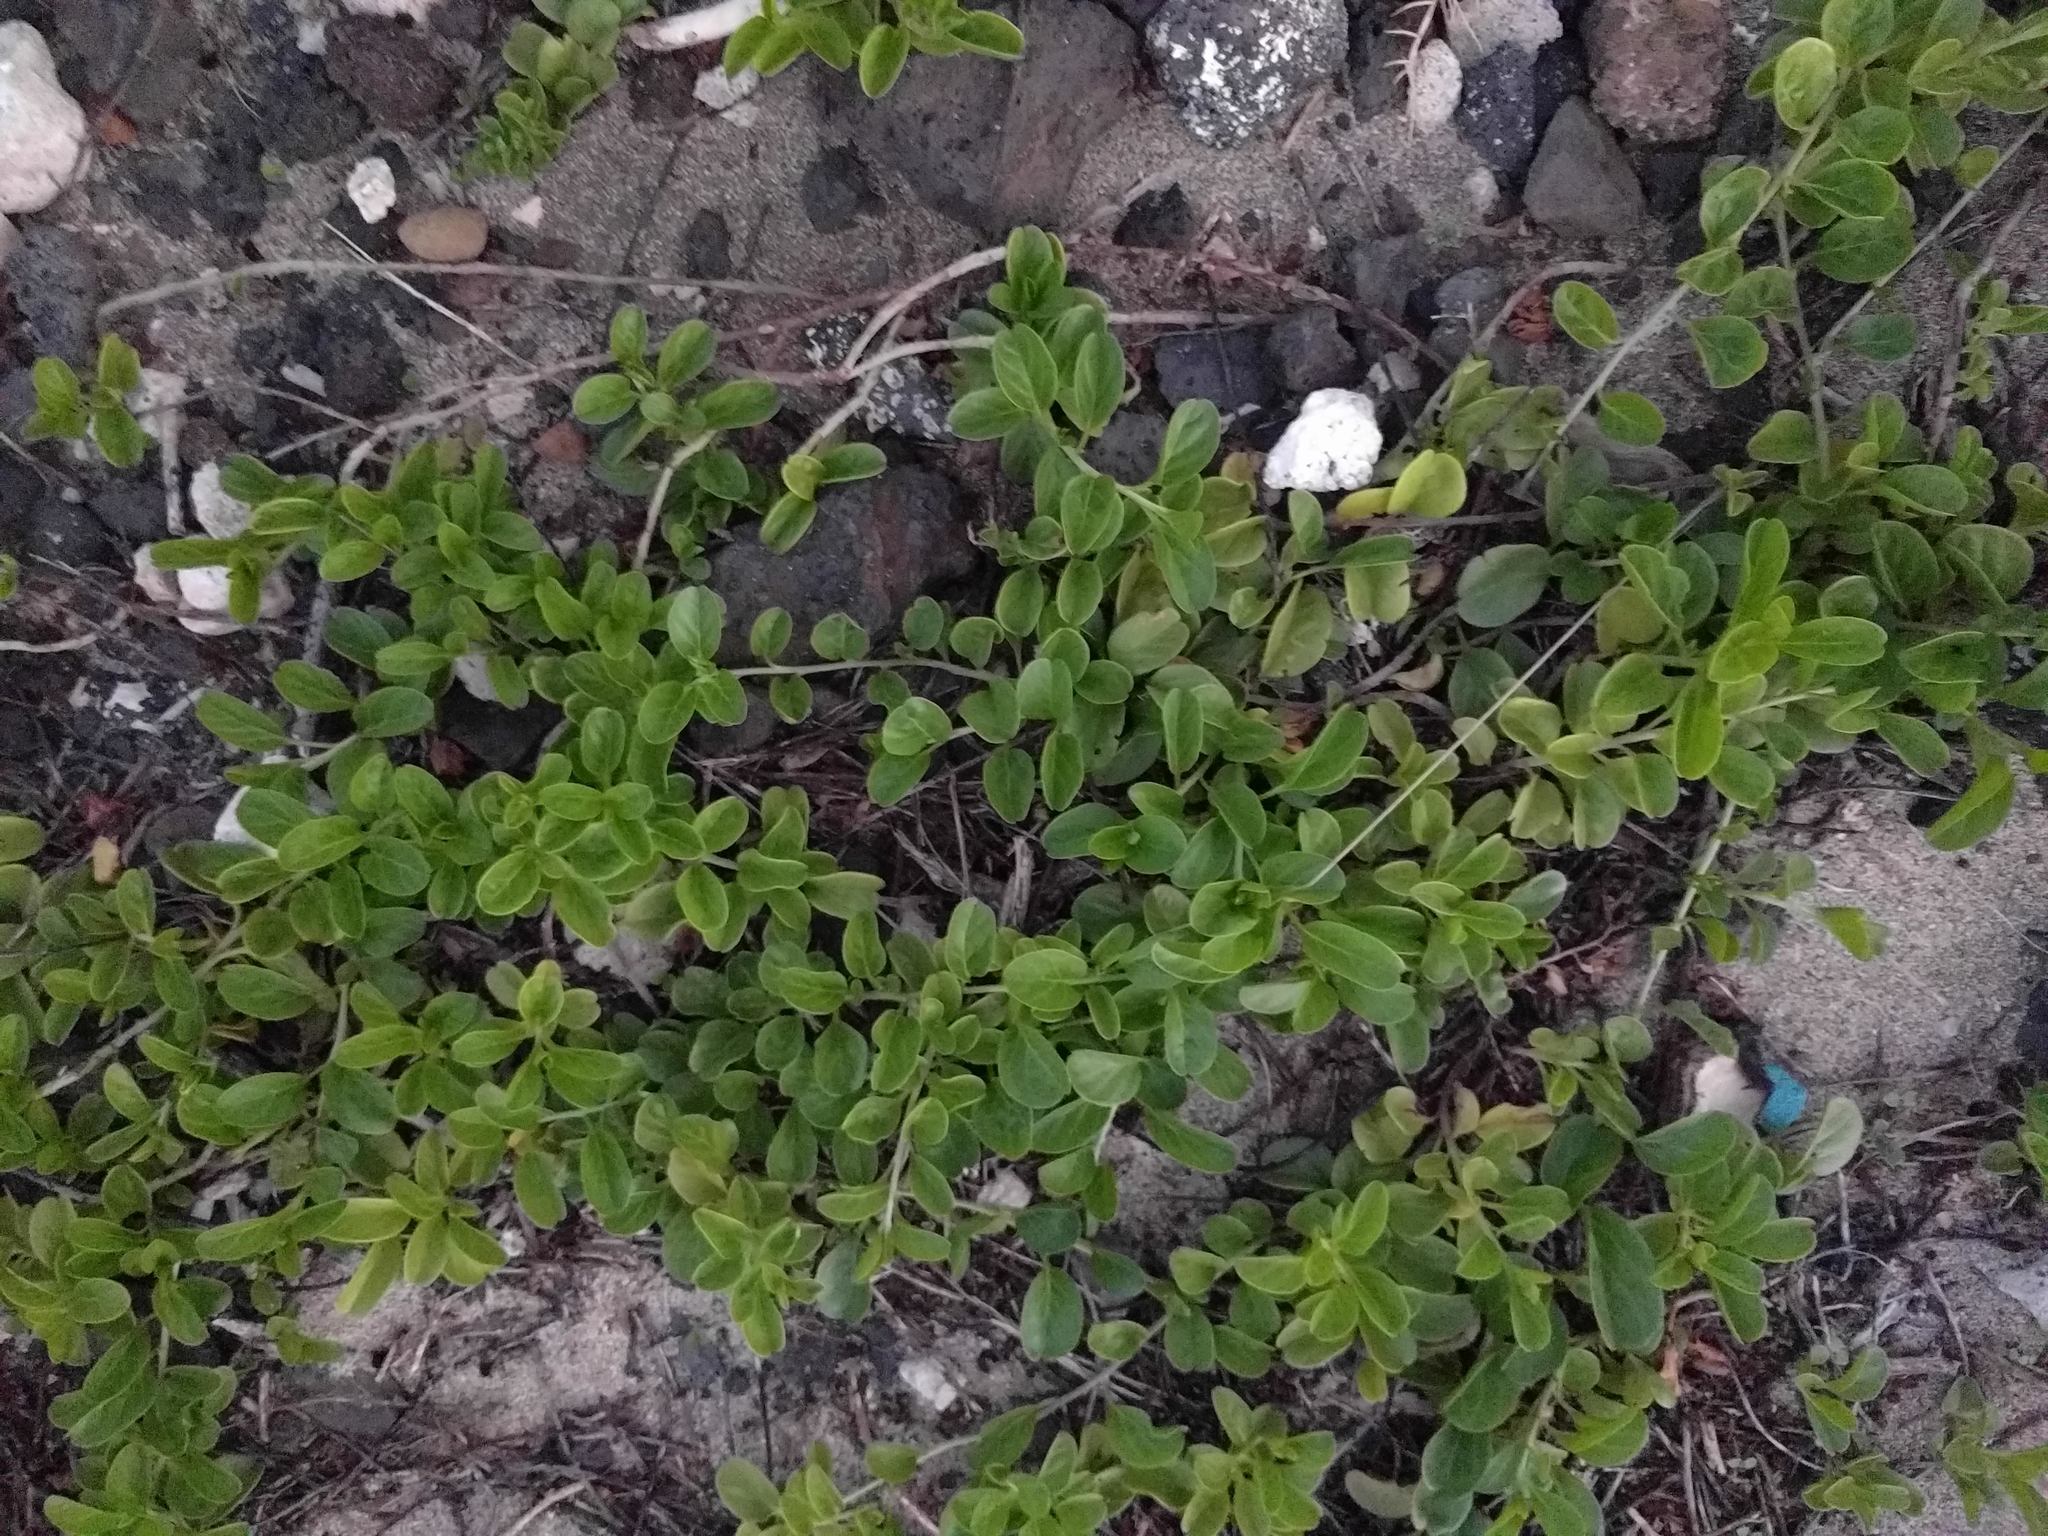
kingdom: Plantae
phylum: Tracheophyta
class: Magnoliopsida
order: Solanales
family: Convolvulaceae
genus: Jacquemontia
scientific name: Jacquemontia sandwicensis
